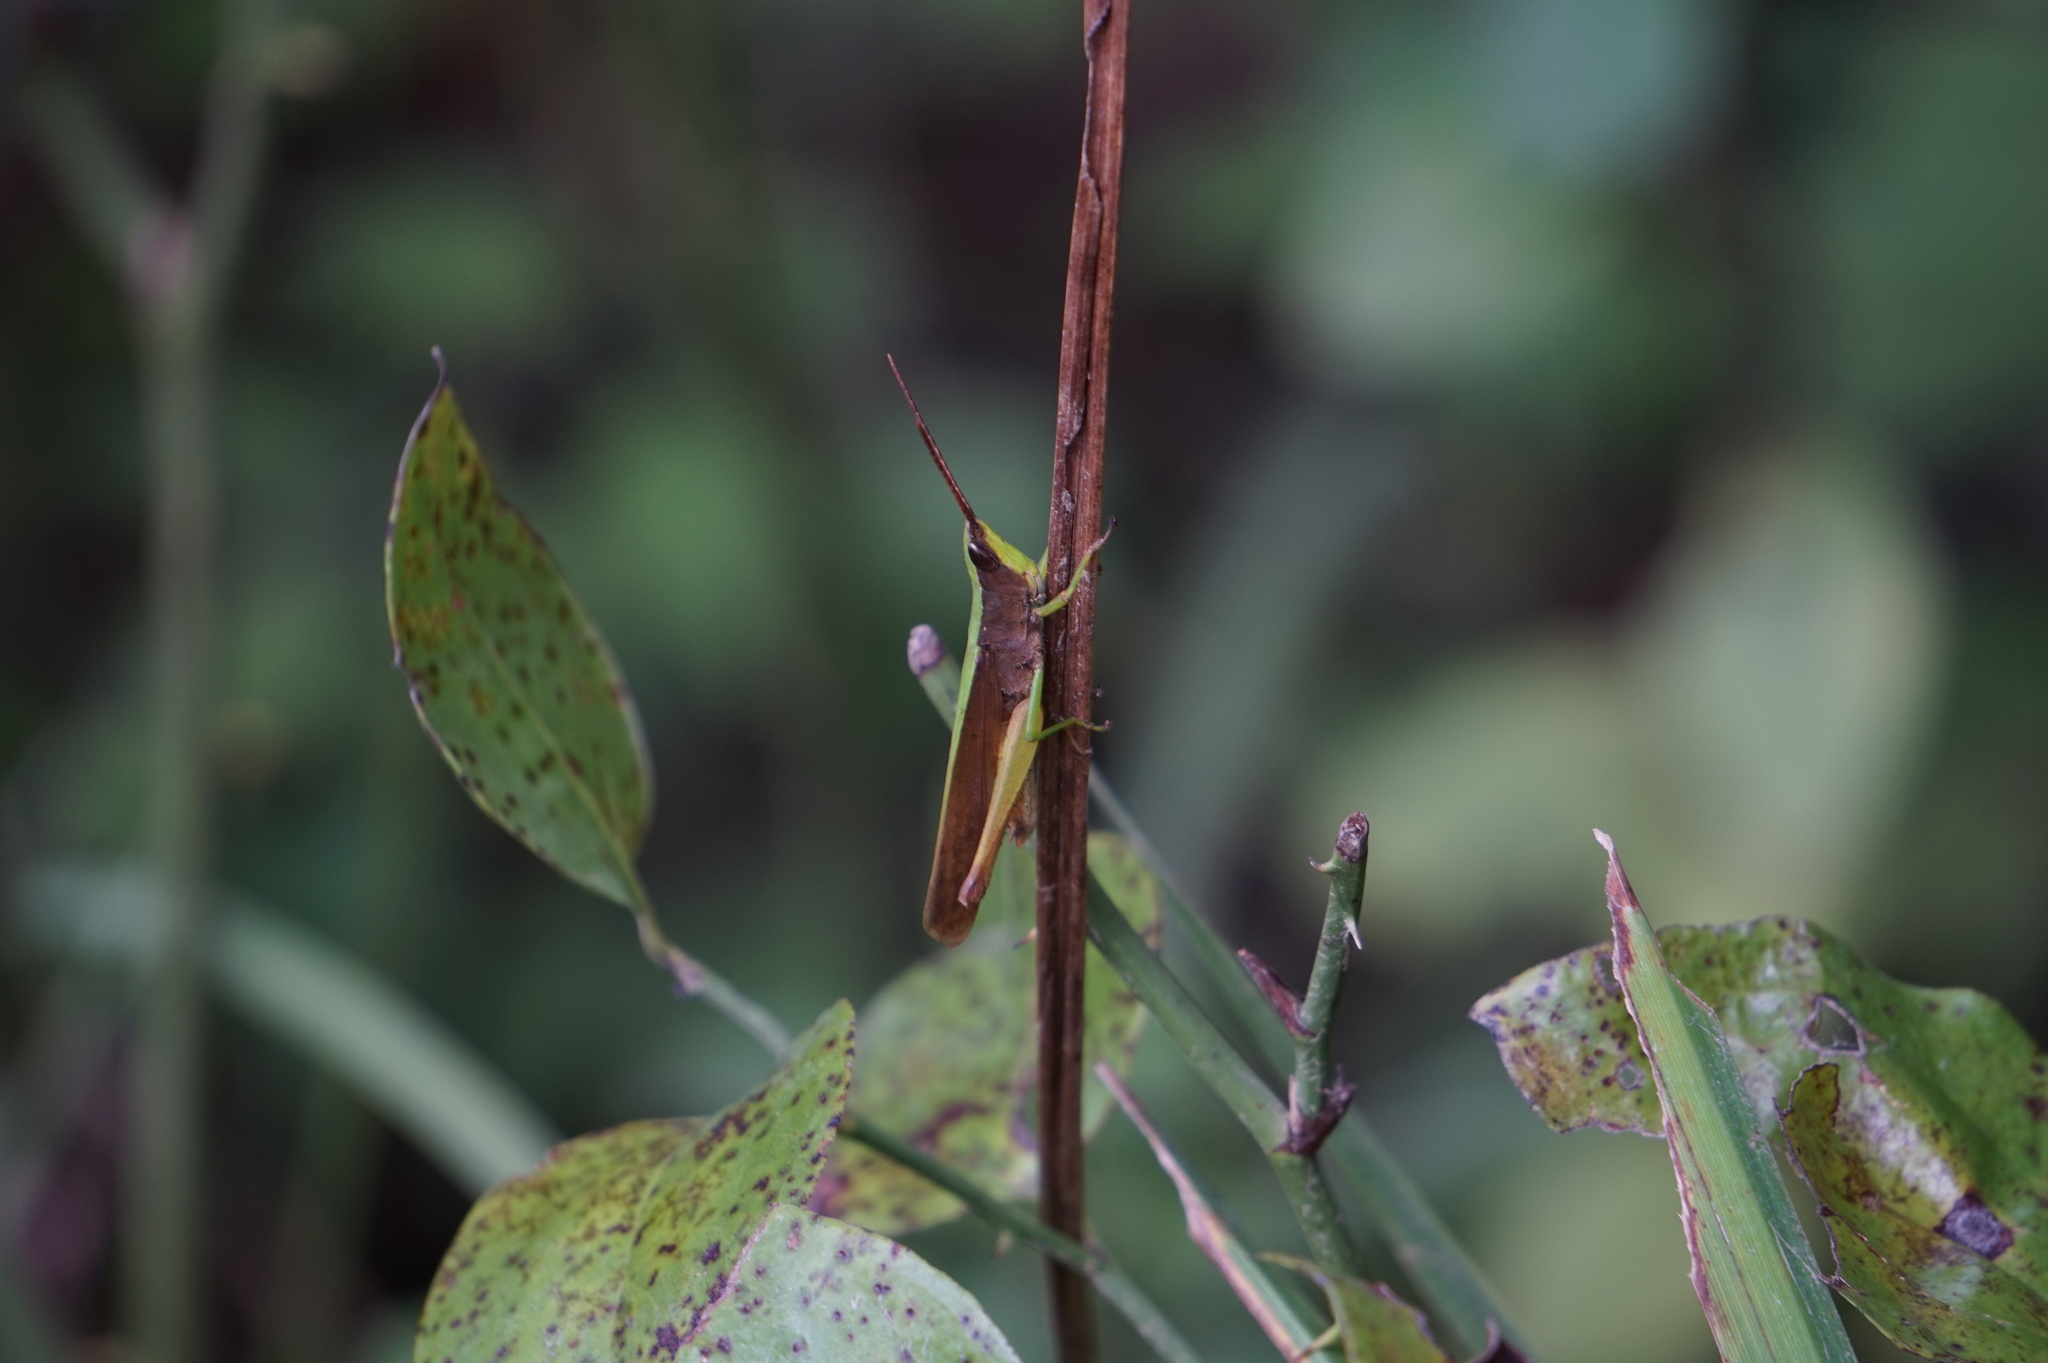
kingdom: Animalia
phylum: Arthropoda
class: Insecta
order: Orthoptera
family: Acrididae
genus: Metaleptea
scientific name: Metaleptea brevicornis
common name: Clipped-wing grasshopper
